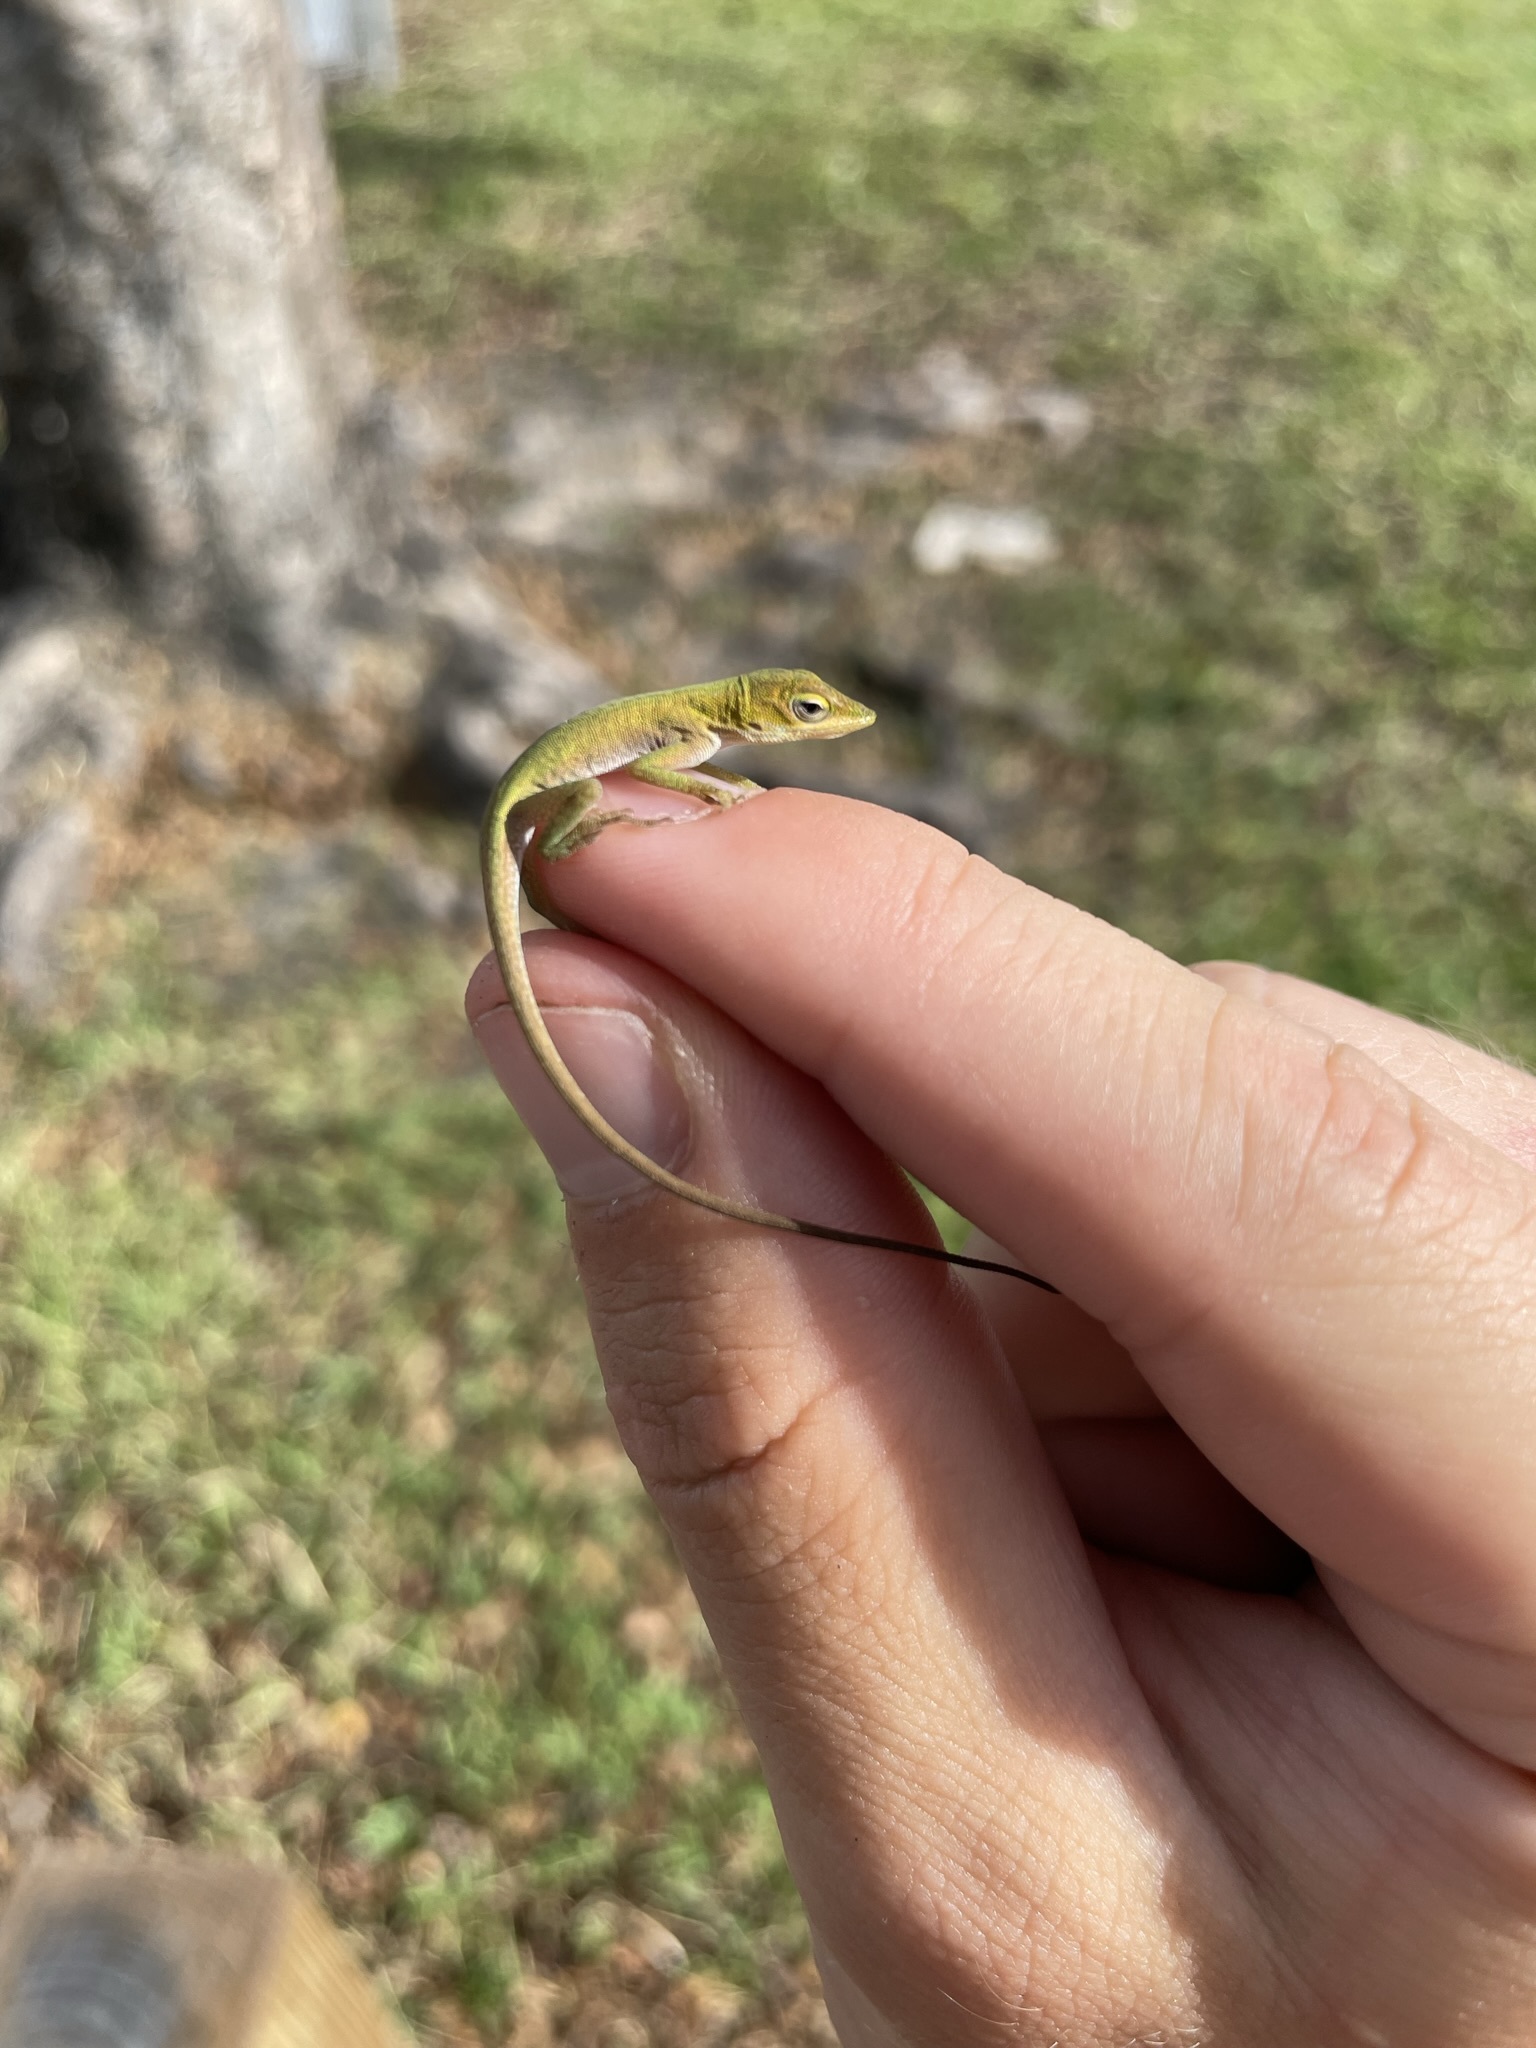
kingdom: Animalia
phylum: Chordata
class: Squamata
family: Dactyloidae
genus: Anolis
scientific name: Anolis carolinensis
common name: Green anole
